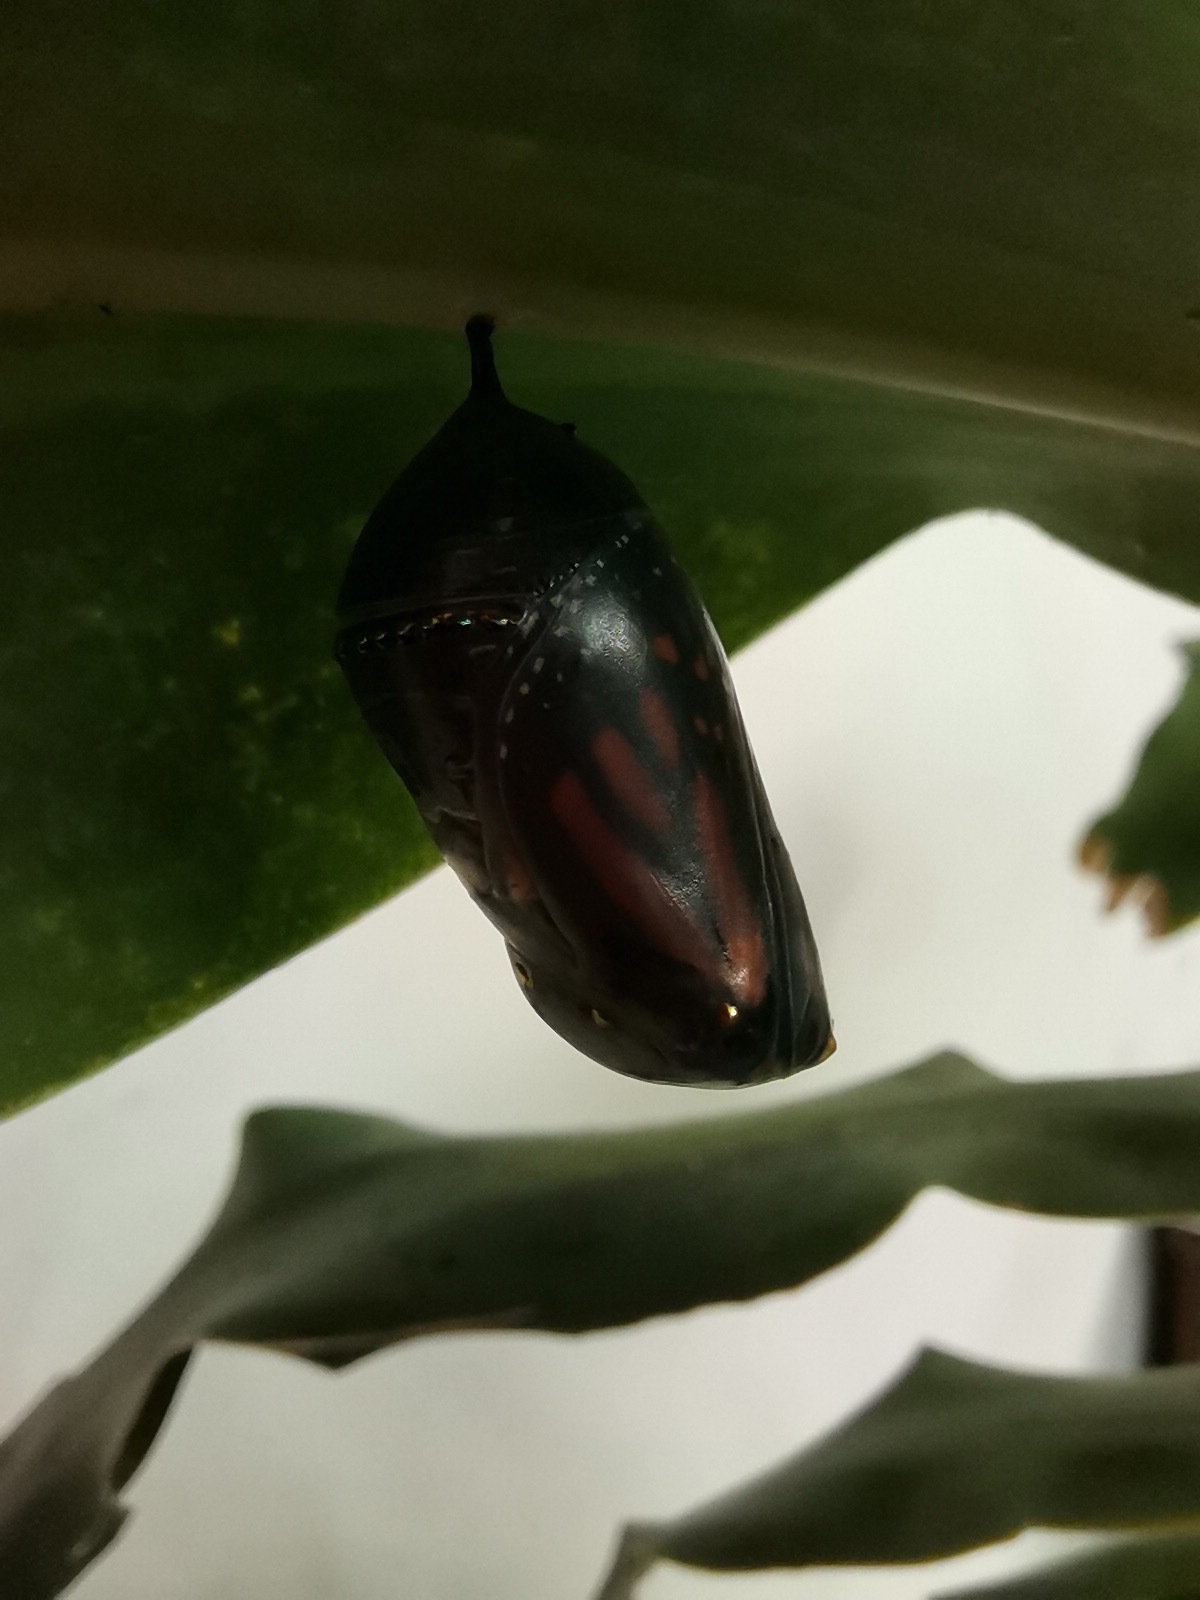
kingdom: Animalia
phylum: Arthropoda
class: Insecta
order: Lepidoptera
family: Nymphalidae
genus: Danaus
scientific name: Danaus plexippus
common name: Monarch
